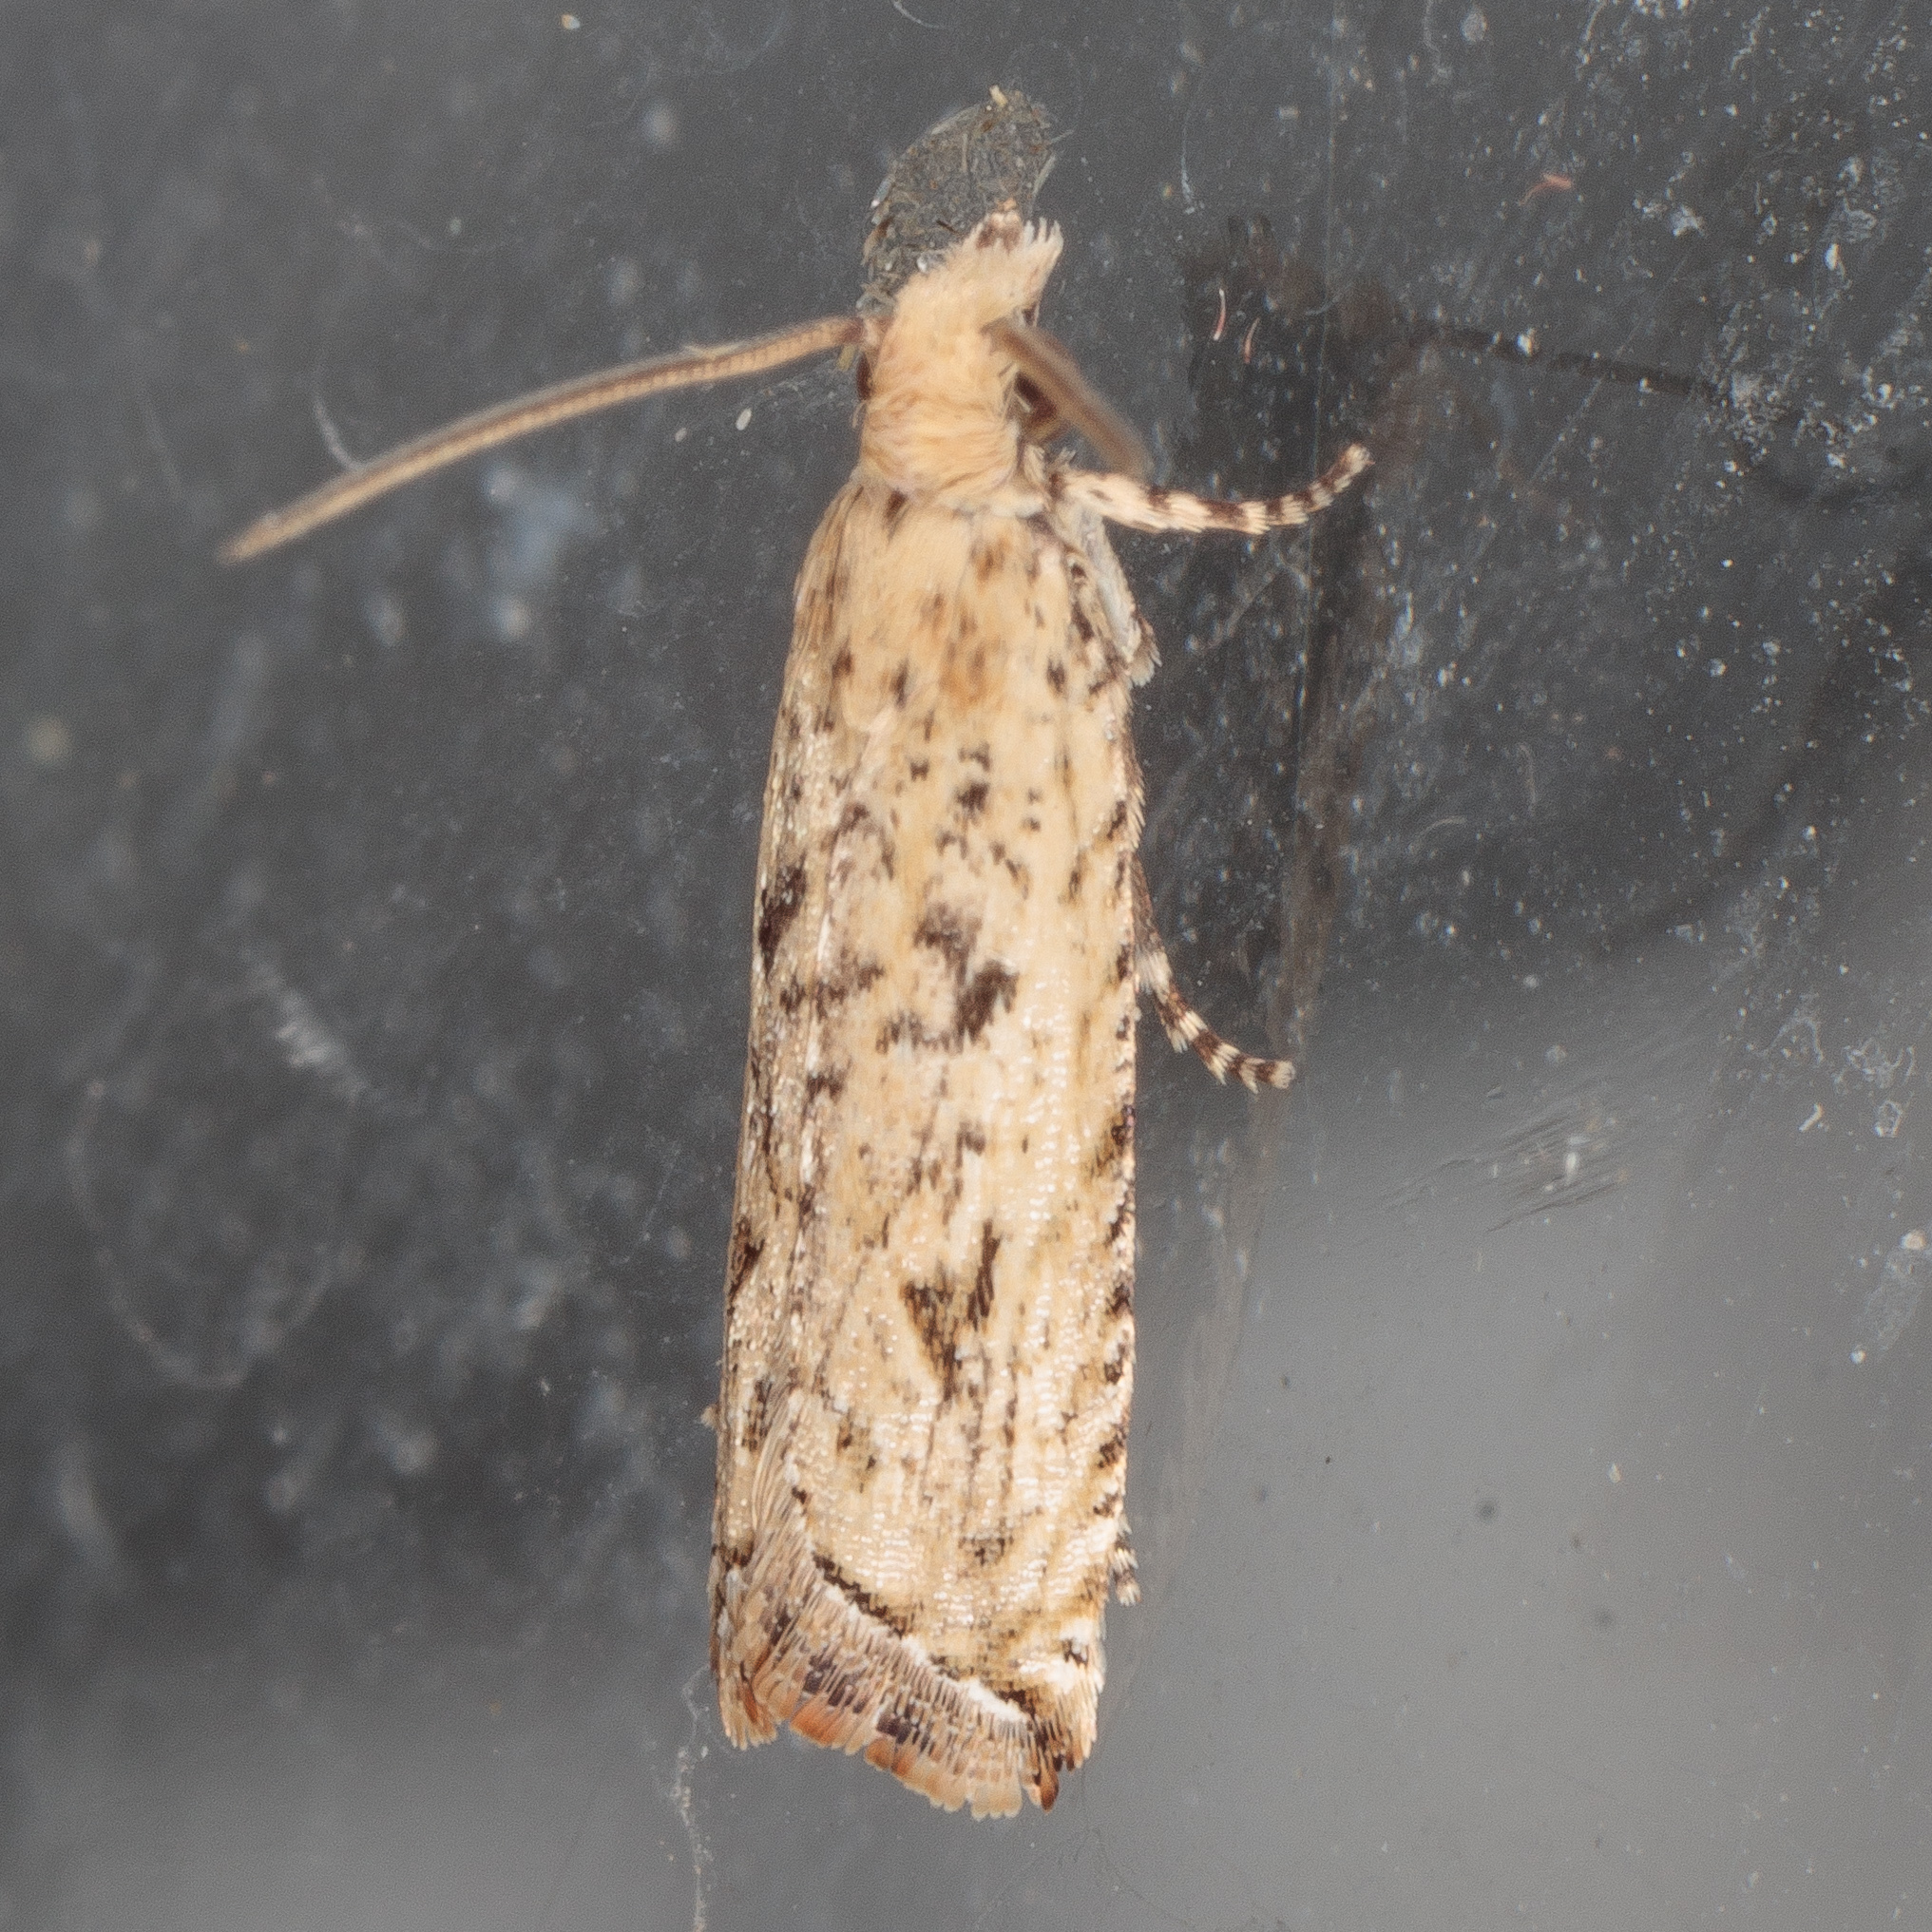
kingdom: Animalia
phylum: Arthropoda
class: Insecta
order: Lepidoptera
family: Tortricidae
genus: Bactra
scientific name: Bactra verutana
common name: Javelin moth
